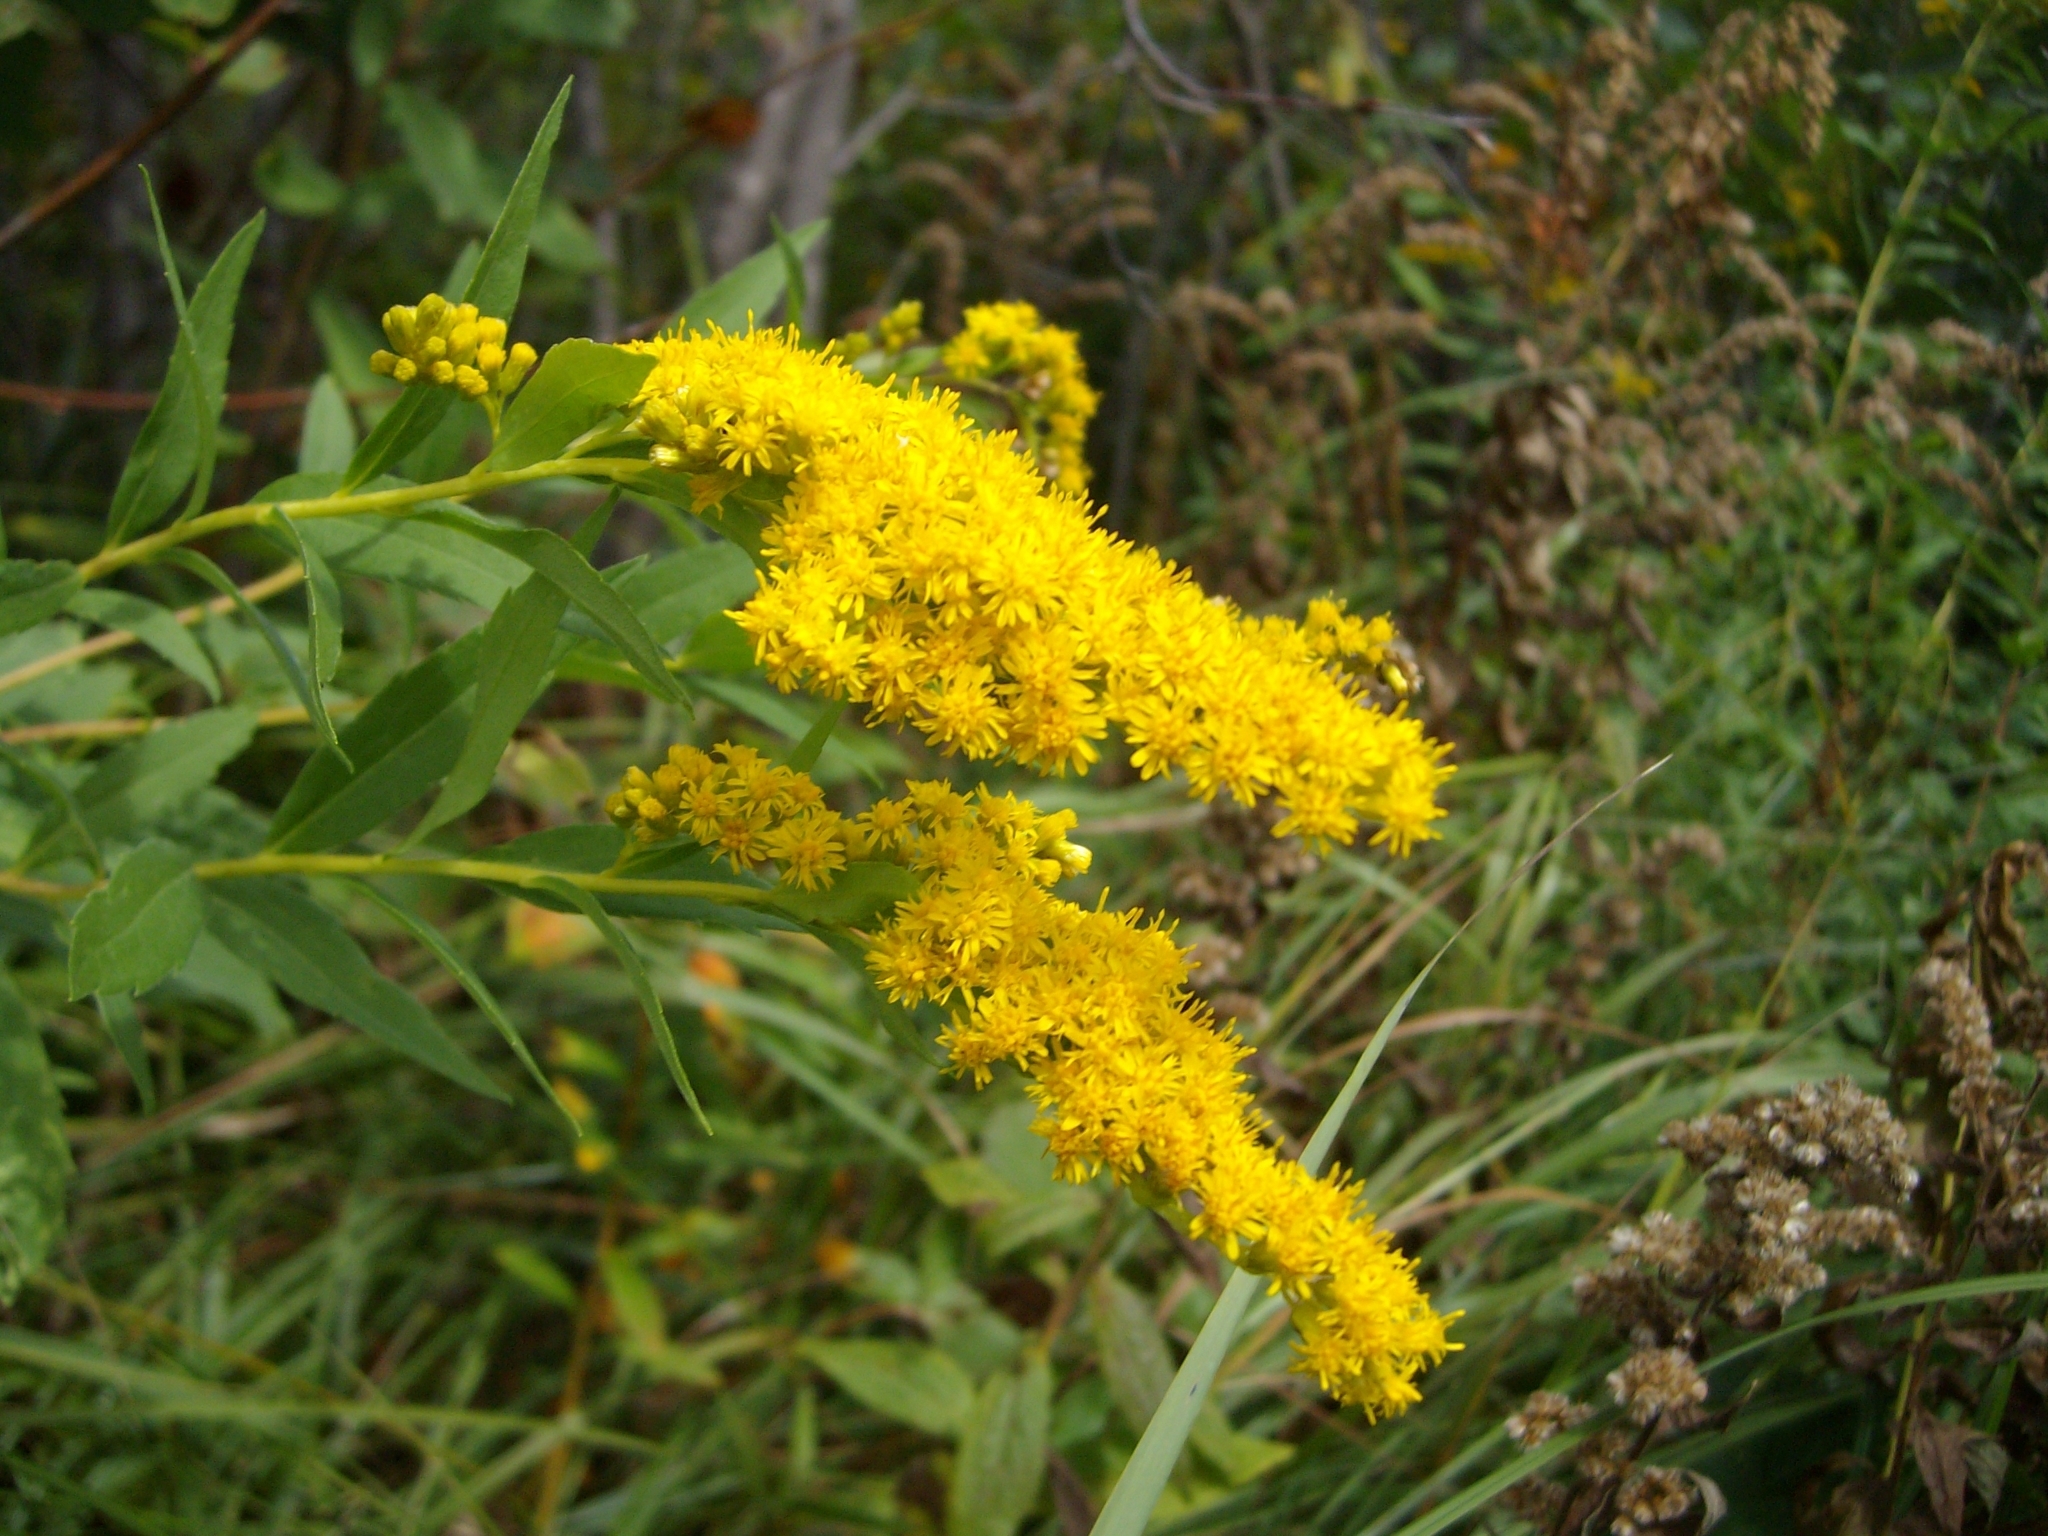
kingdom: Plantae
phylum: Tracheophyta
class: Magnoliopsida
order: Asterales
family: Asteraceae
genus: Solidago
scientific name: Solidago gigantea
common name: Giant goldenrod
